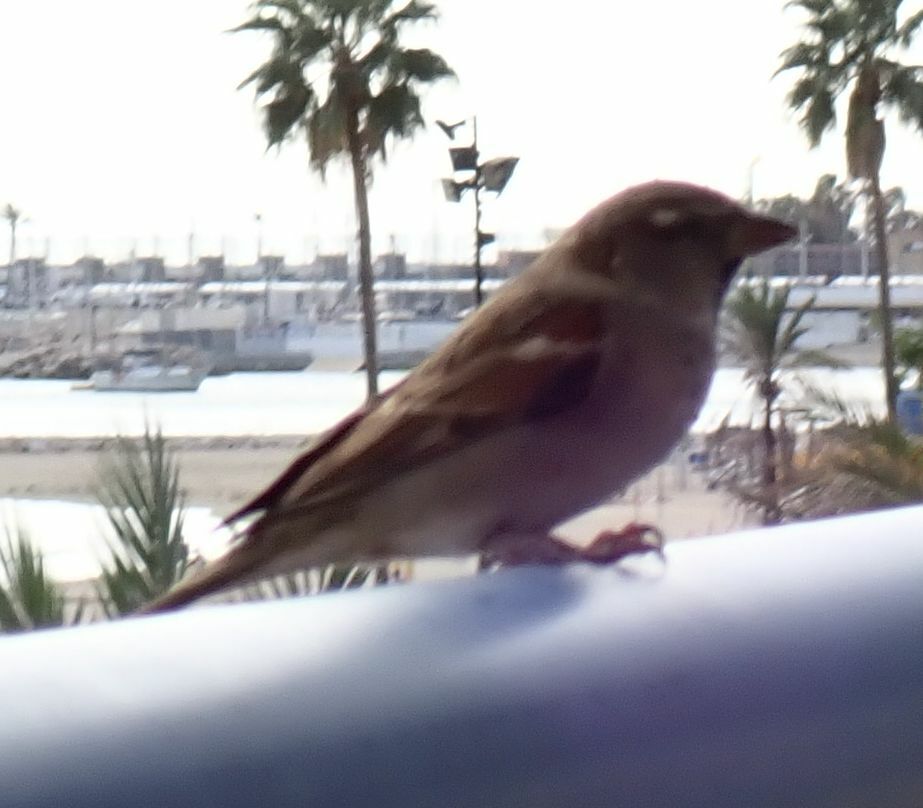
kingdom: Animalia
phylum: Chordata
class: Aves
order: Passeriformes
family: Passeridae
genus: Passer
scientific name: Passer domesticus
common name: House sparrow
